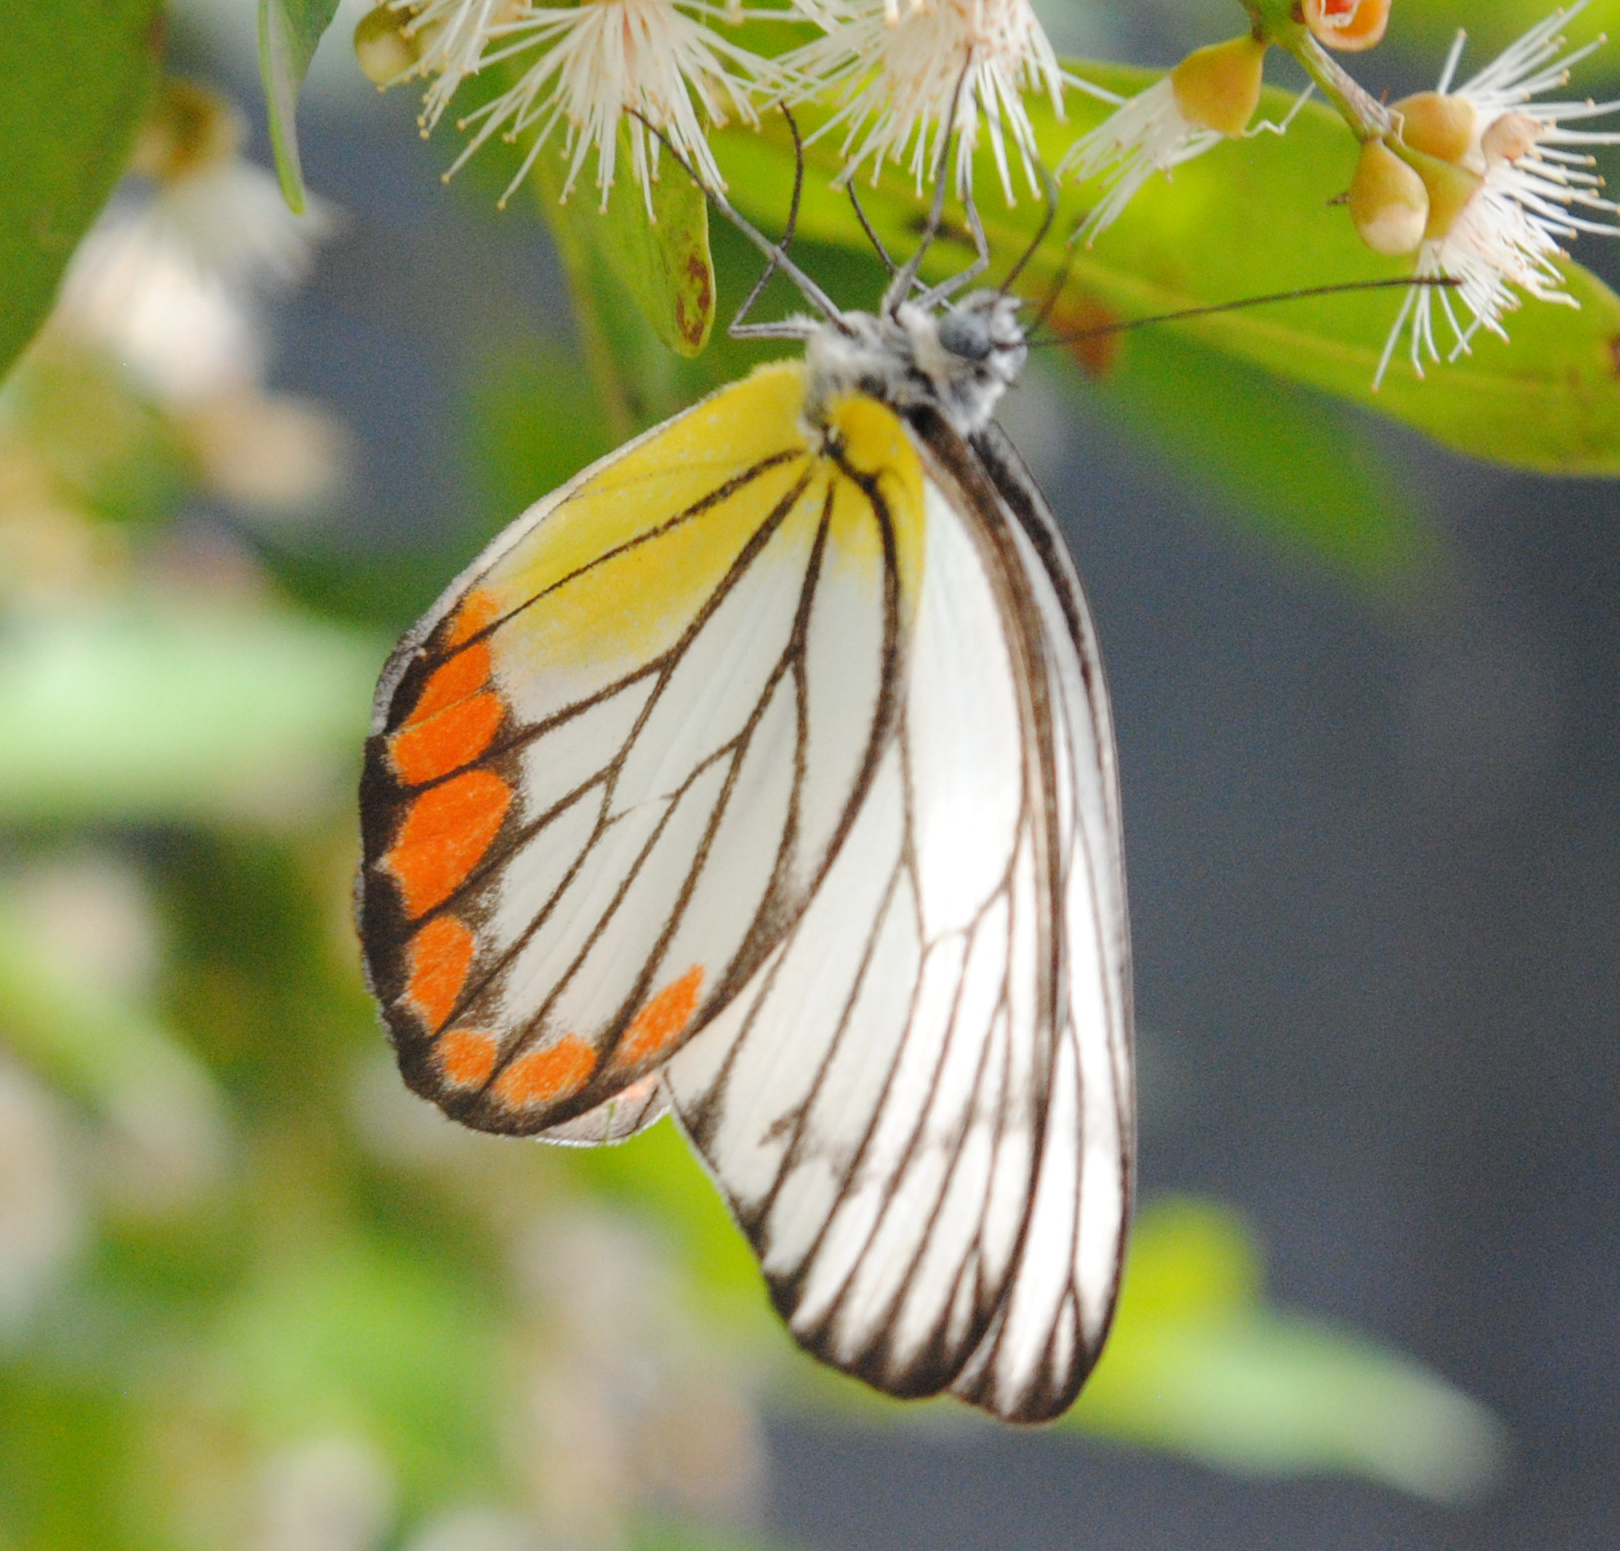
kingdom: Animalia
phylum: Arthropoda
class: Insecta
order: Lepidoptera
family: Pieridae
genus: Delias
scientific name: Delias hyparete
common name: Painted jezebel
